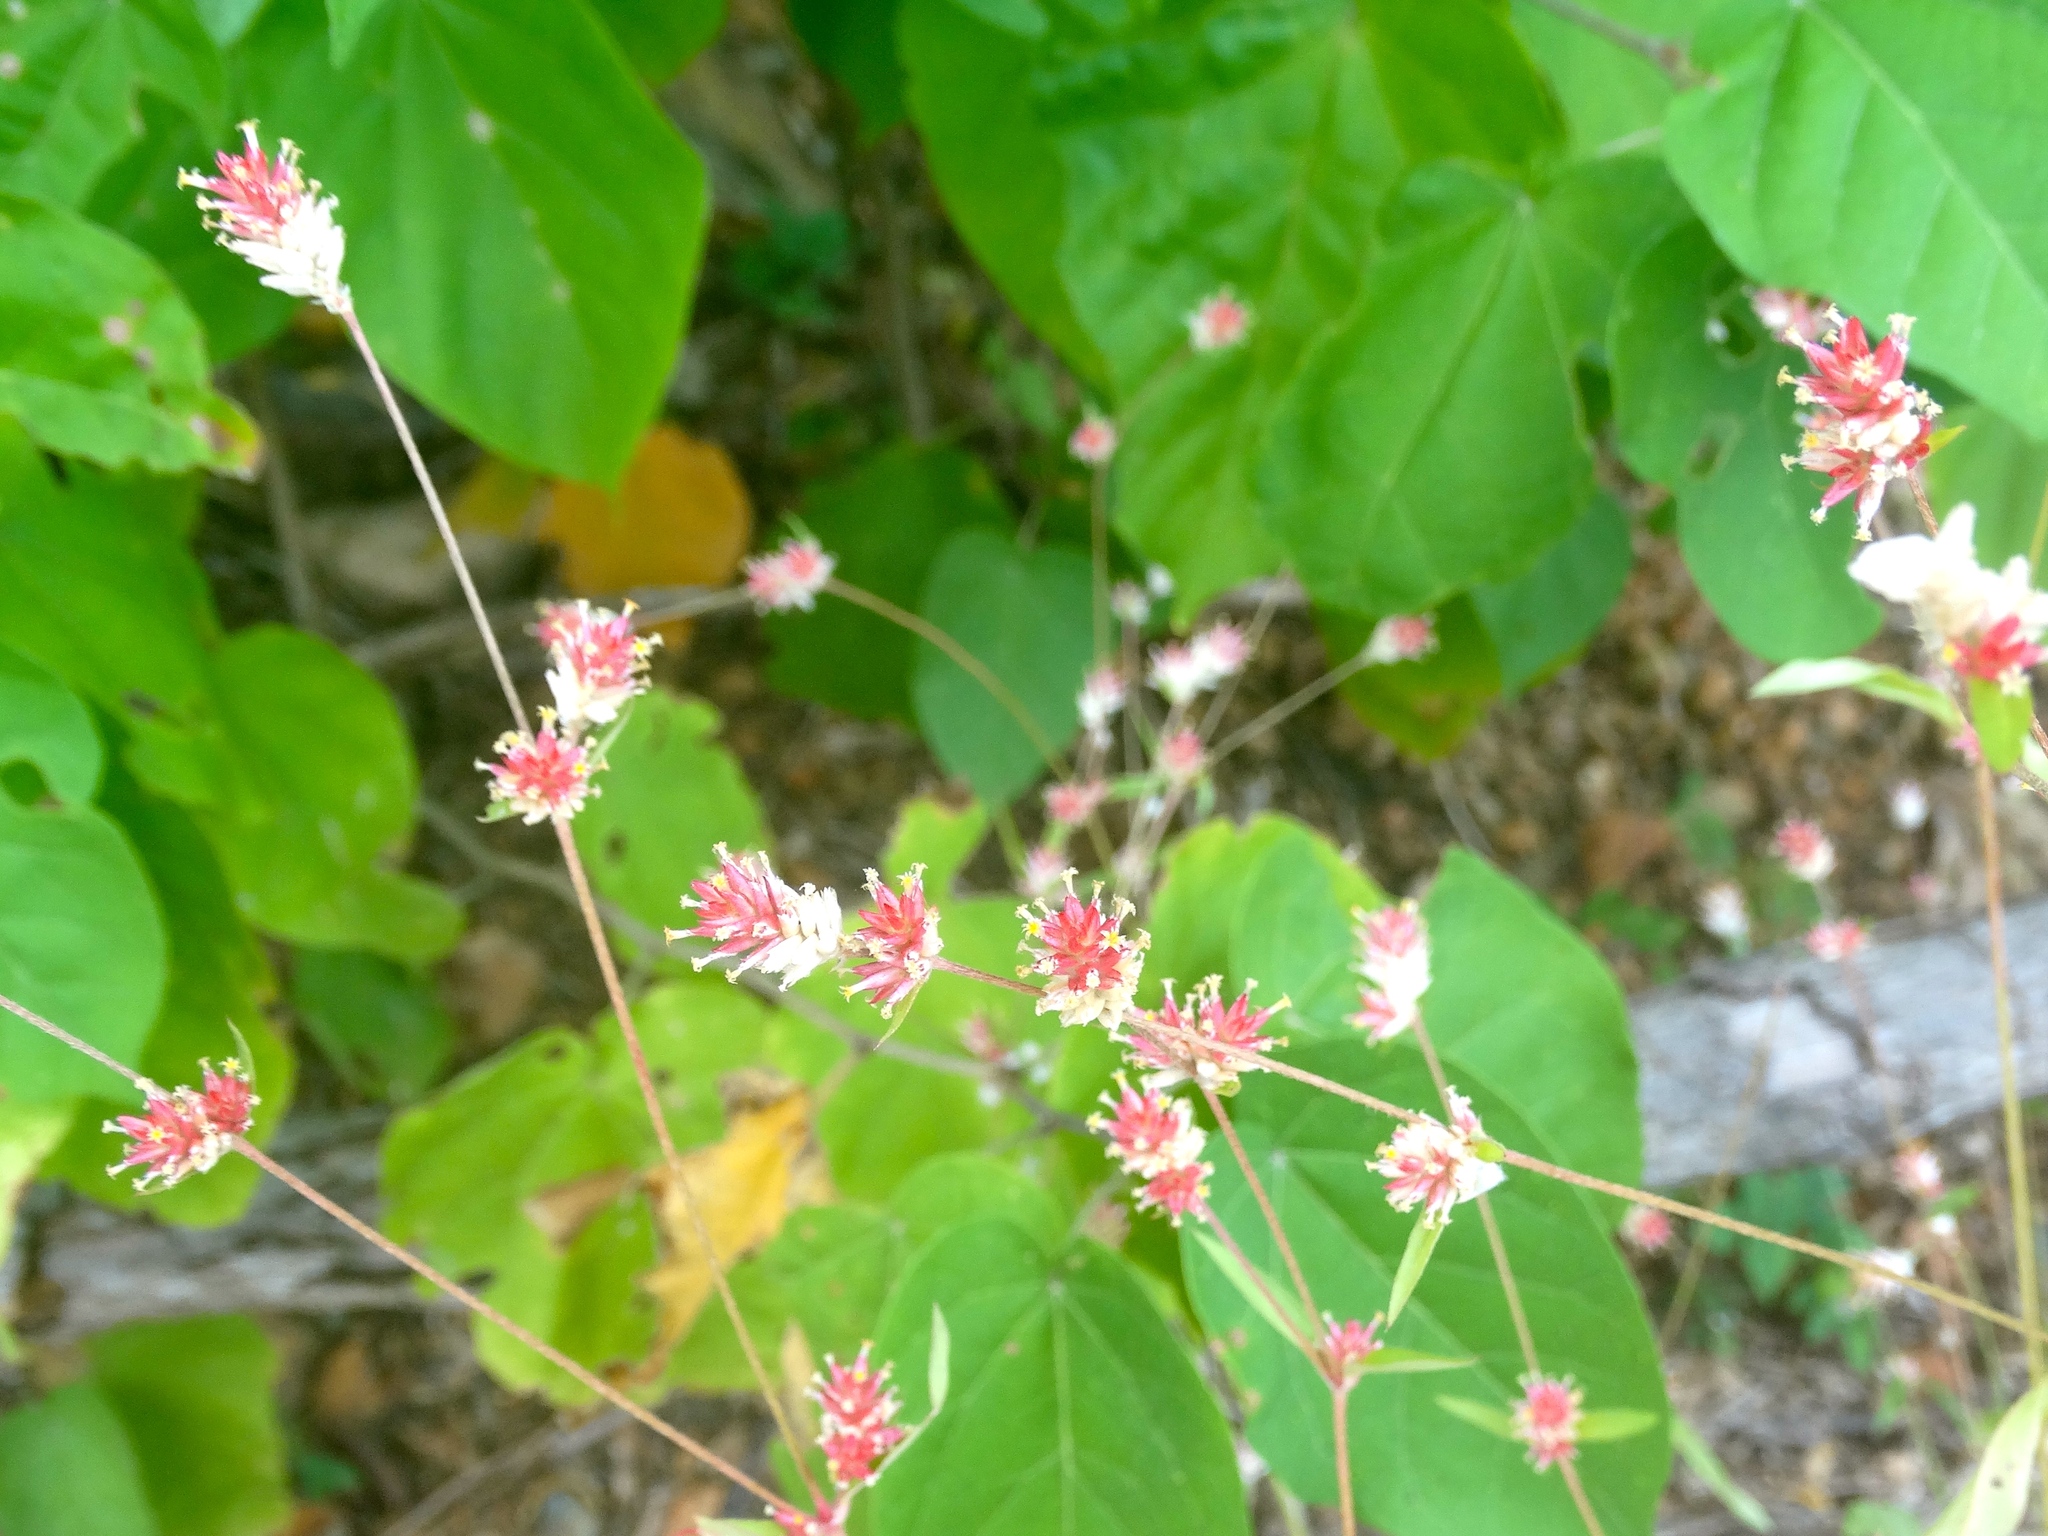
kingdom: Plantae
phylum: Tracheophyta
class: Magnoliopsida
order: Caryophyllales
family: Amaranthaceae
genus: Gomphrena
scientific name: Gomphrena
